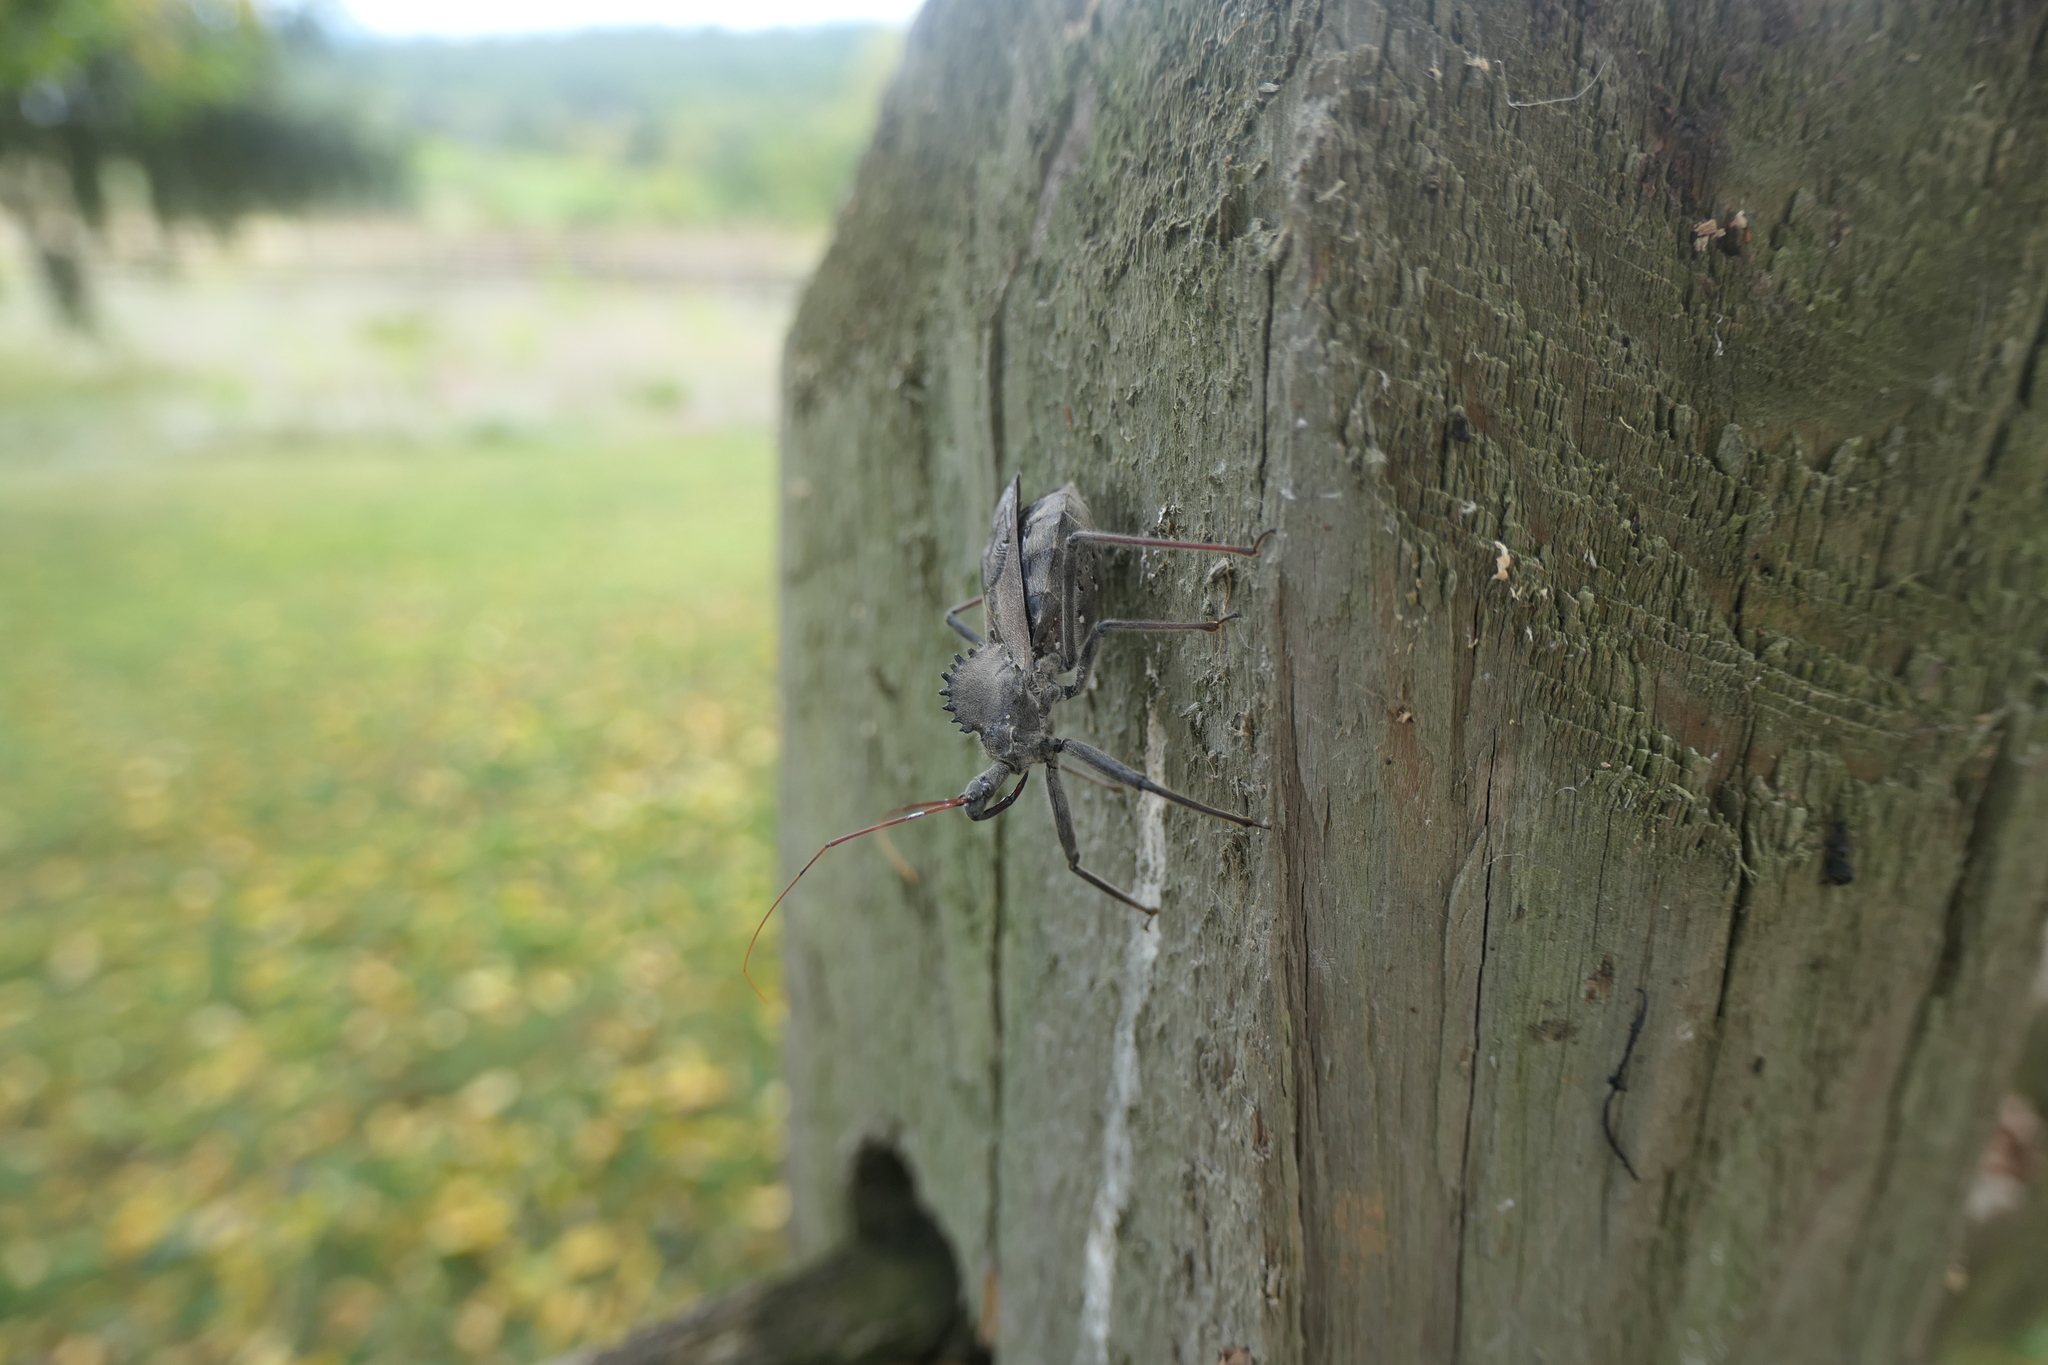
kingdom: Animalia
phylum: Arthropoda
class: Insecta
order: Hemiptera
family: Reduviidae
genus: Arilus
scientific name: Arilus cristatus
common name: North american wheel bug
